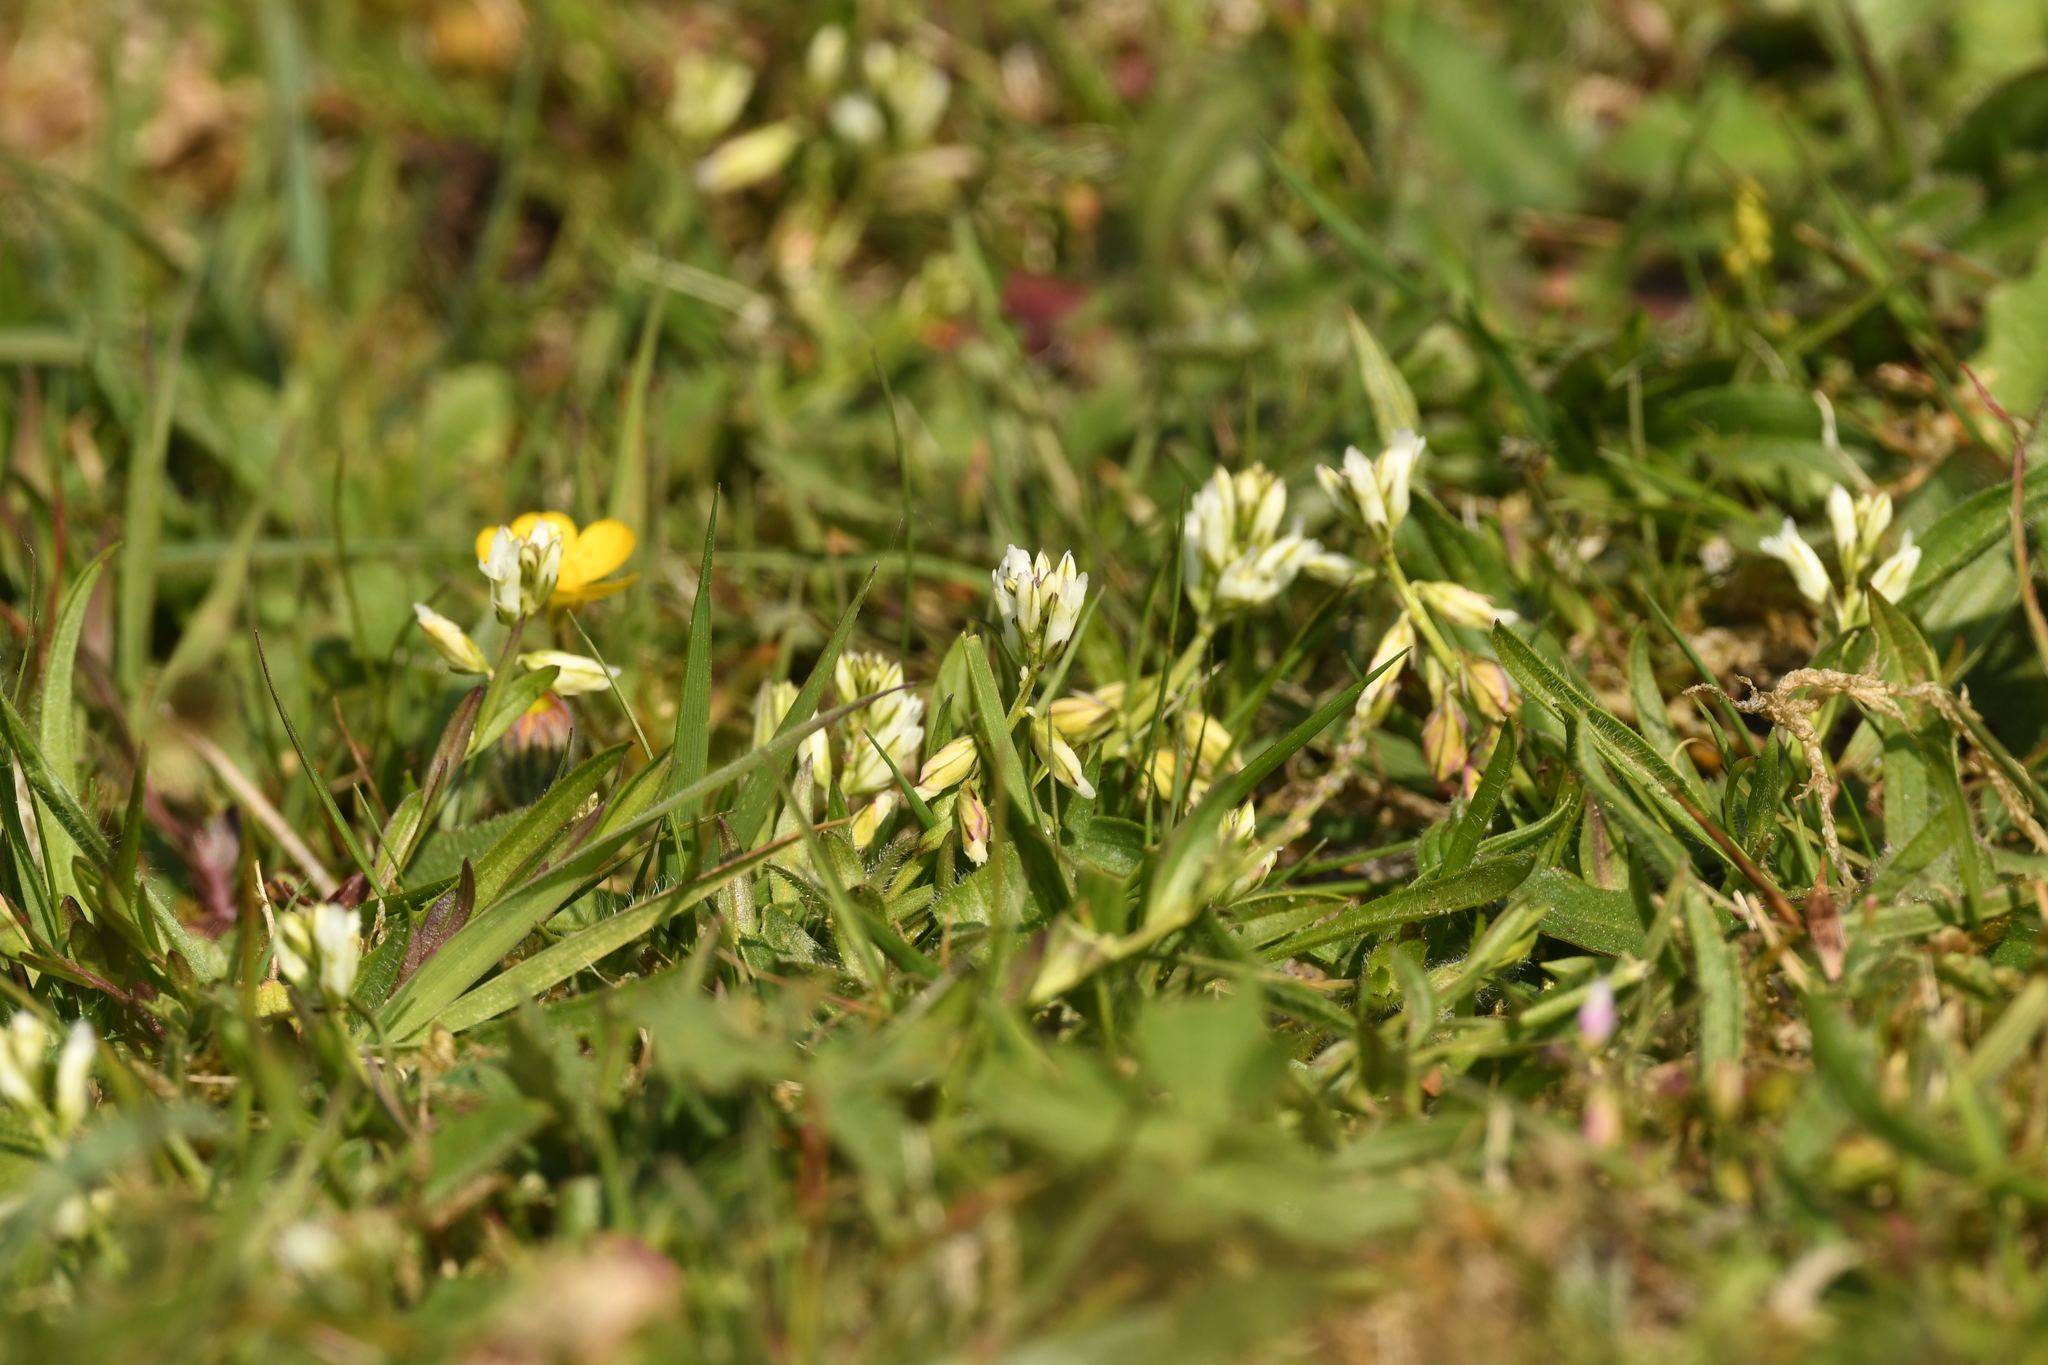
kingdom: Plantae
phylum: Tracheophyta
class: Magnoliopsida
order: Fabales
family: Polygalaceae
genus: Polygala
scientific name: Polygala vulgaris
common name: Common milkwort
